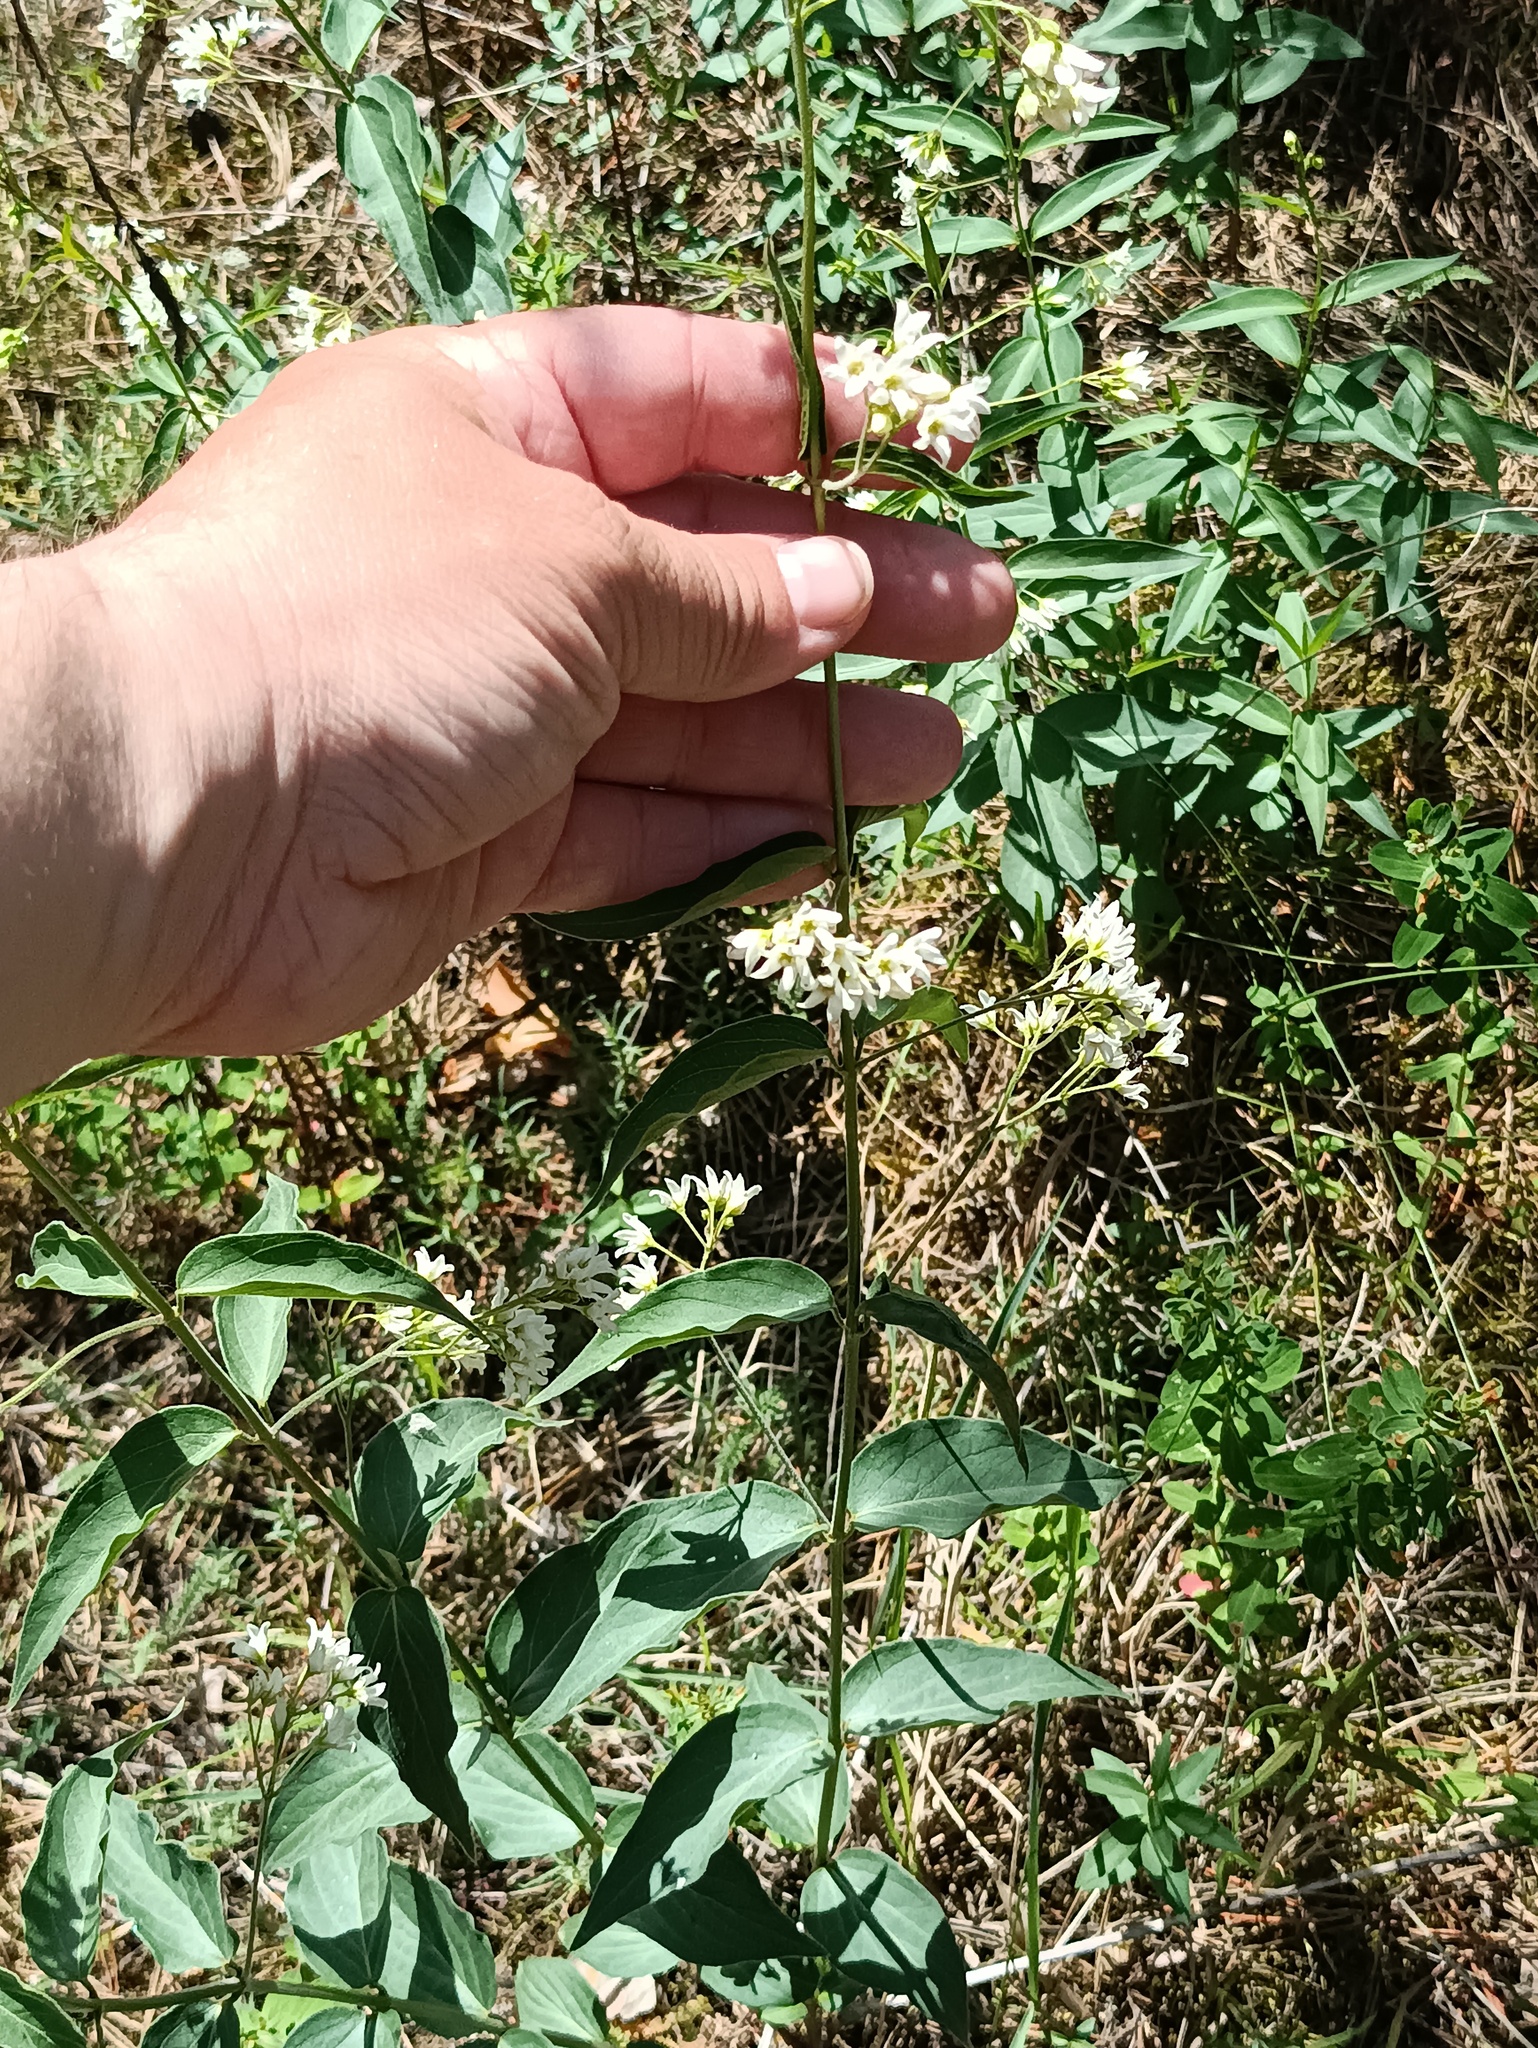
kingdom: Plantae
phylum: Tracheophyta
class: Magnoliopsida
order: Gentianales
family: Apocynaceae
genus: Vincetoxicum
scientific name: Vincetoxicum hirundinaria
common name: White swallowwort
